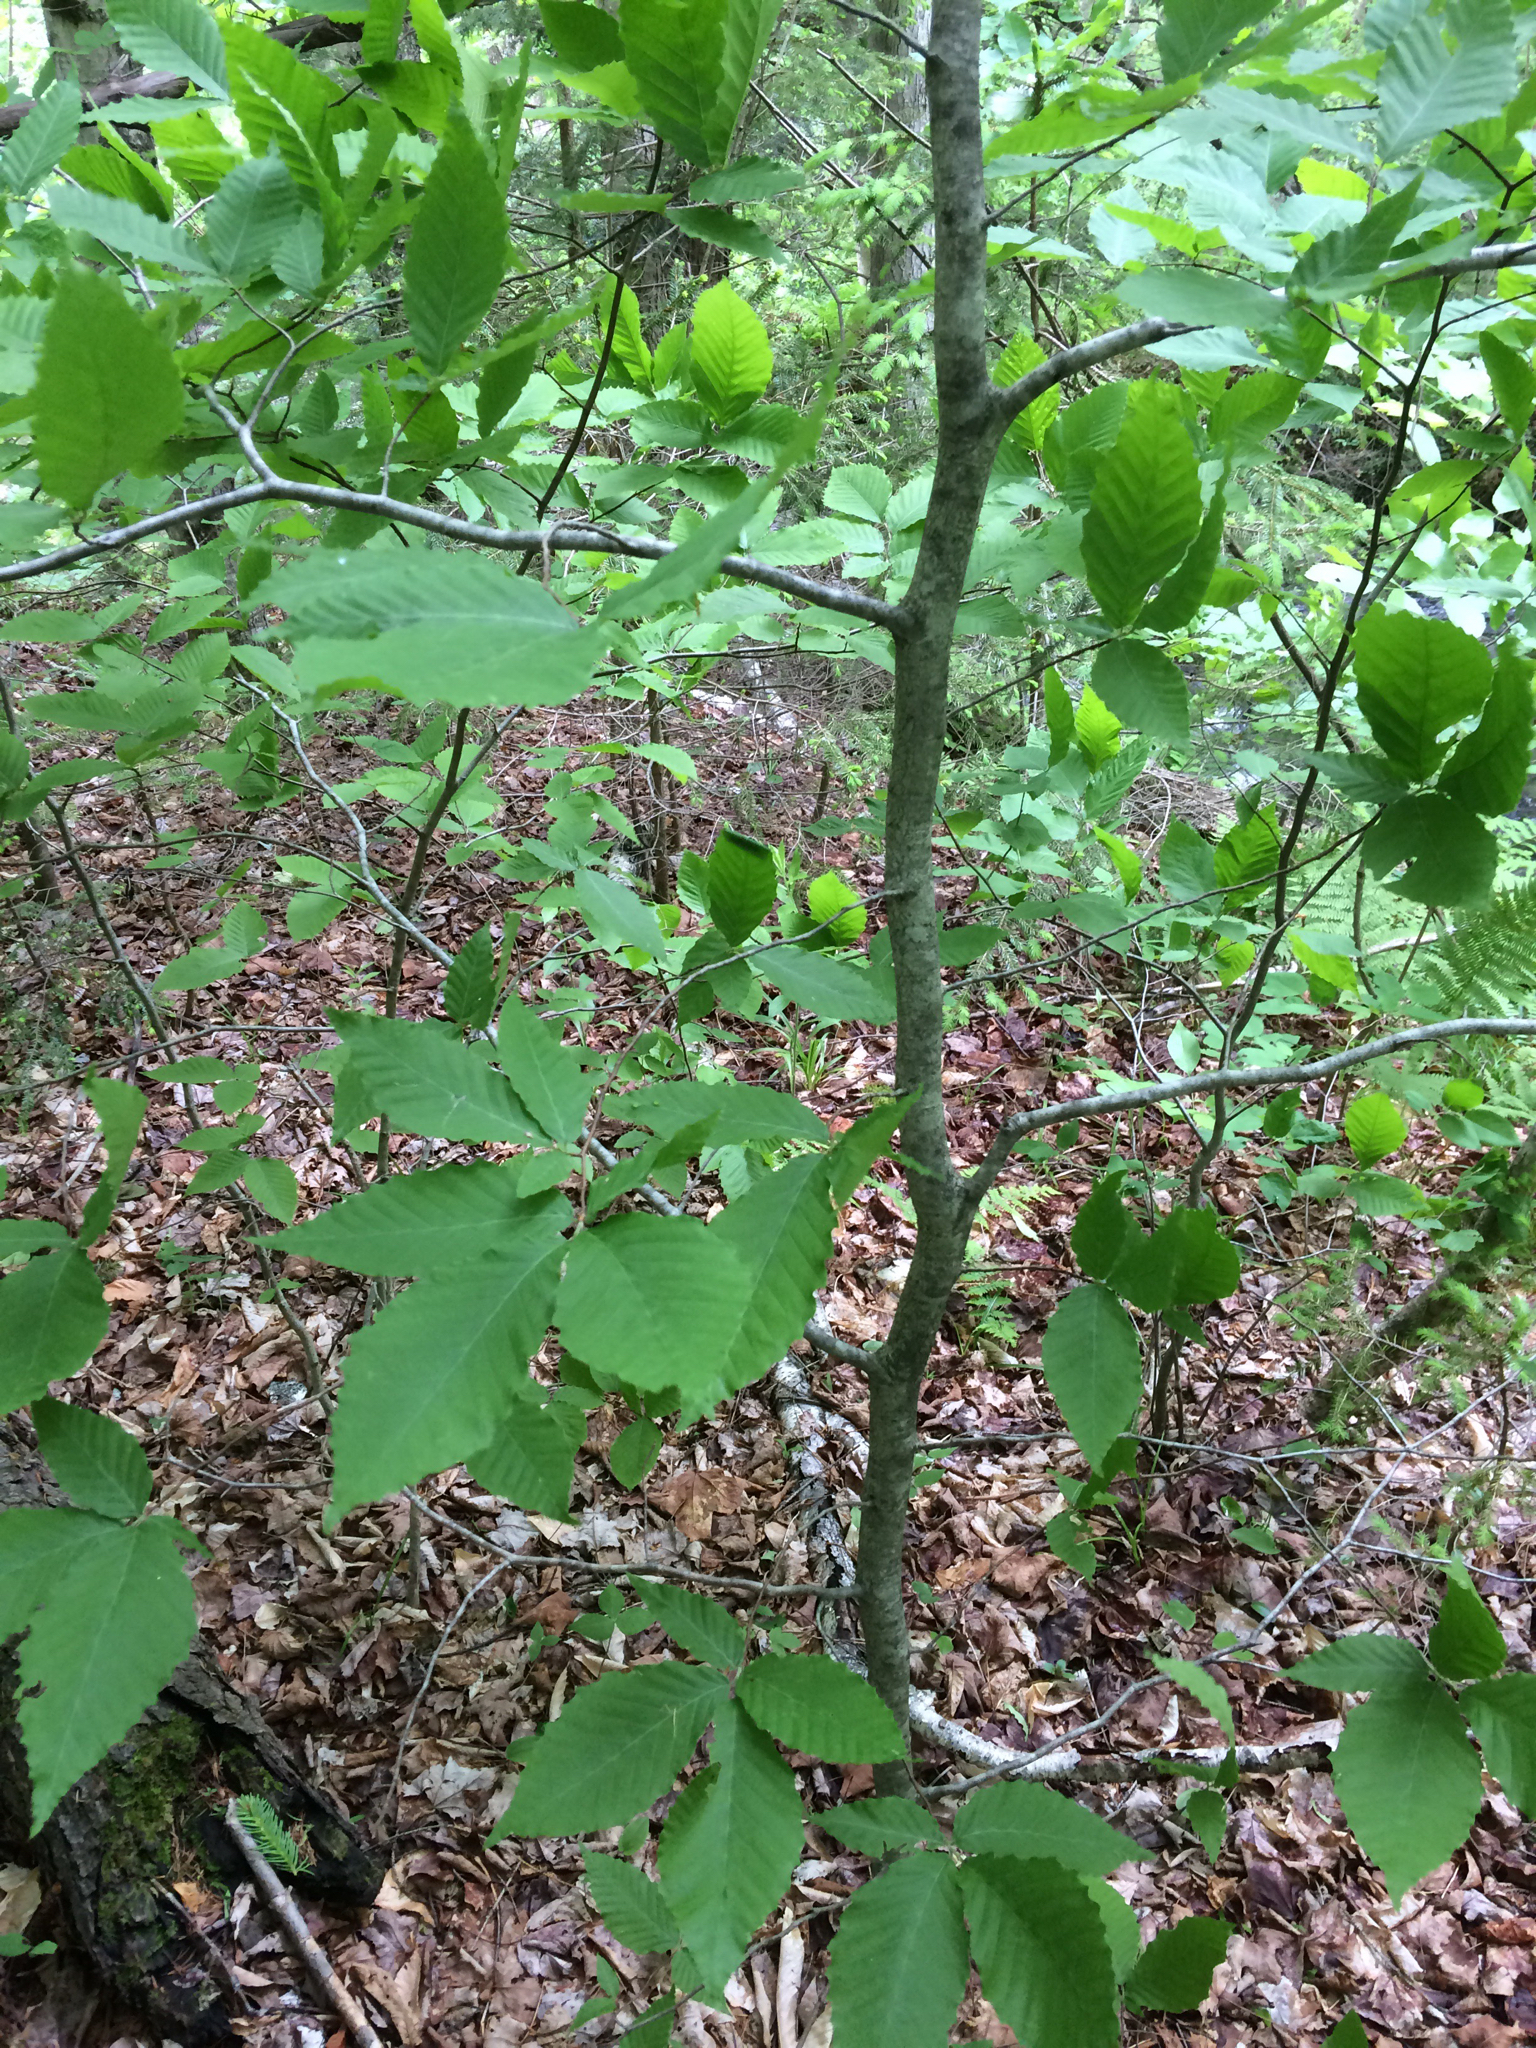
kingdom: Plantae
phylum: Tracheophyta
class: Magnoliopsida
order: Fagales
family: Fagaceae
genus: Fagus
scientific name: Fagus grandifolia
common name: American beech
